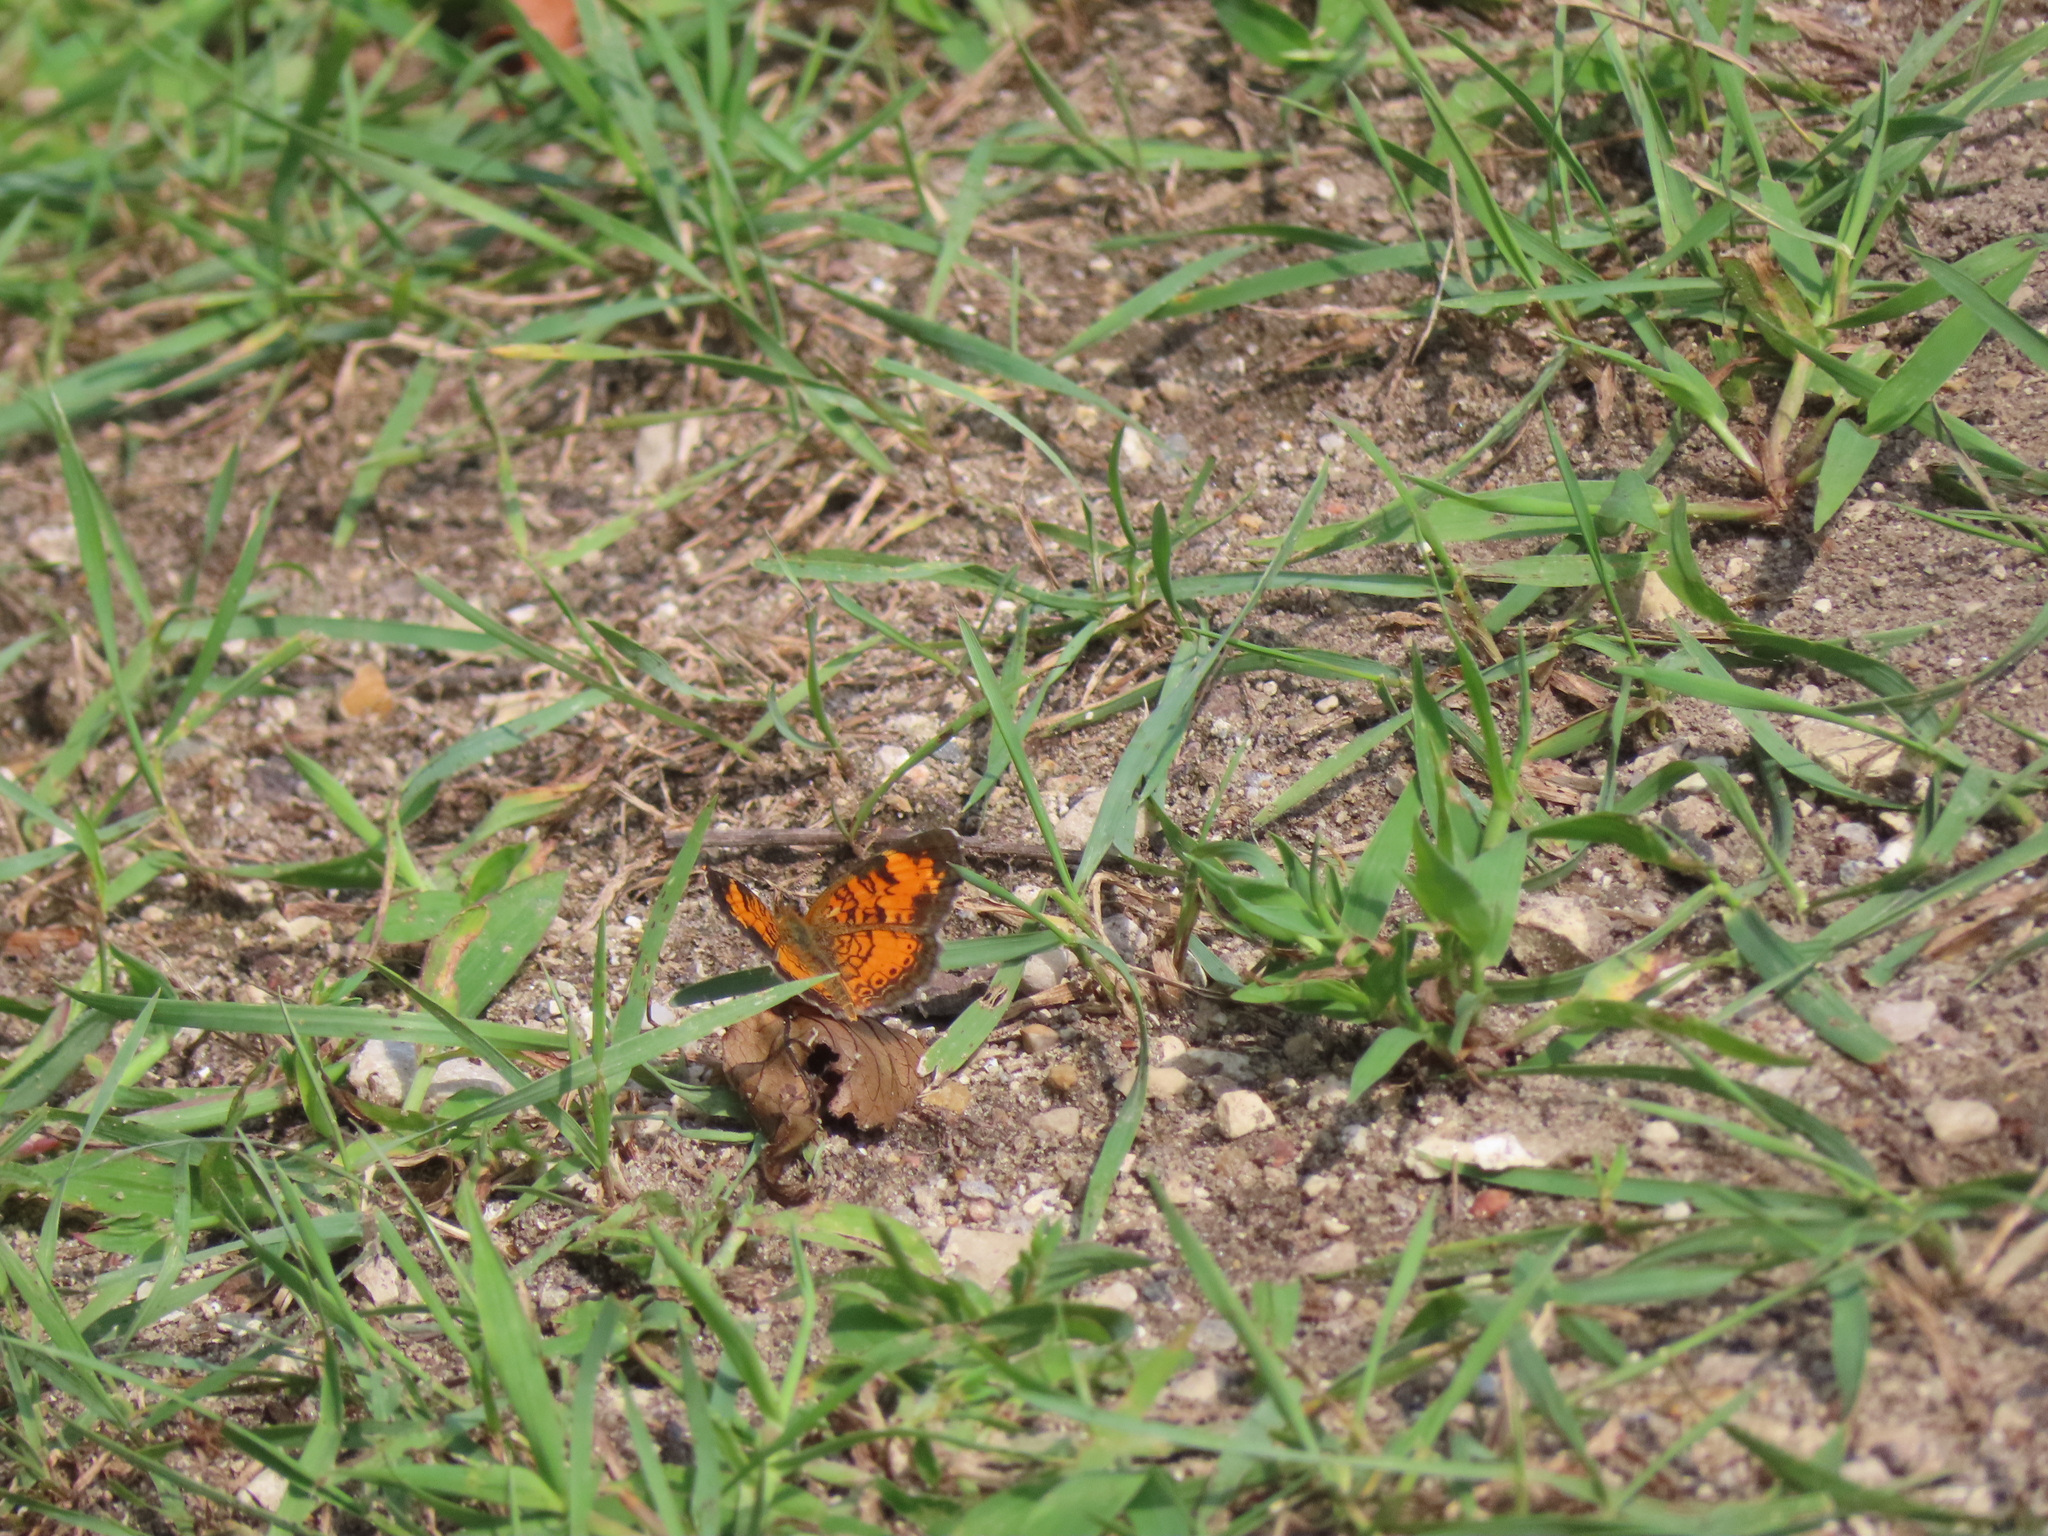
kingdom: Animalia
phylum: Arthropoda
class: Insecta
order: Lepidoptera
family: Nymphalidae
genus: Phyciodes
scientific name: Phyciodes tharos
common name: Pearl crescent
